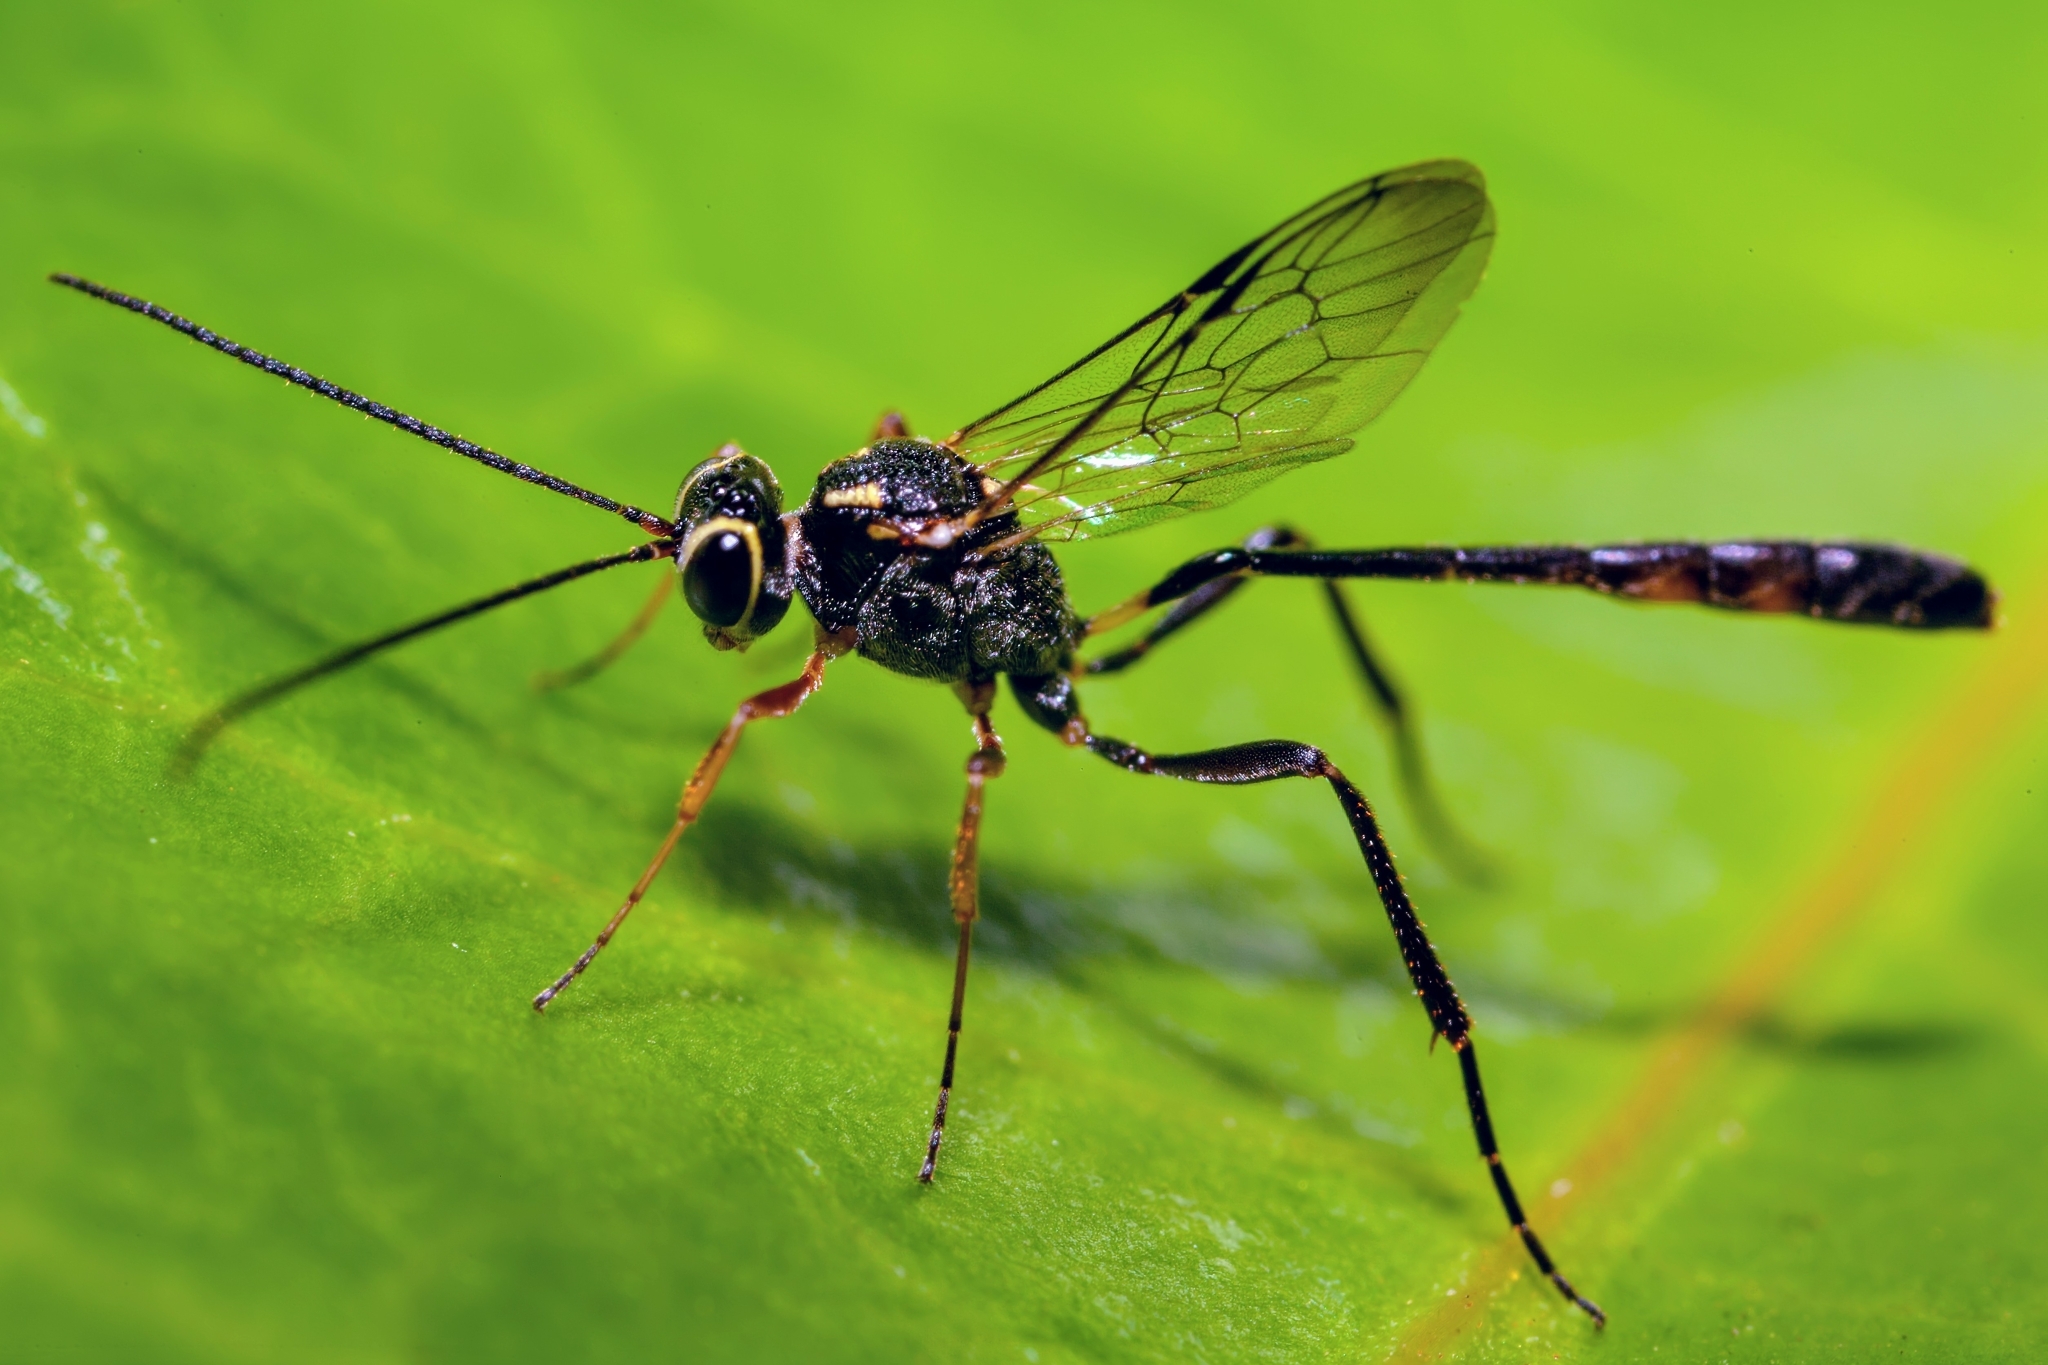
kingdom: Animalia
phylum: Arthropoda
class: Insecta
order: Hymenoptera
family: Ichneumonidae
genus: Anomalon
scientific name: Anomalon
